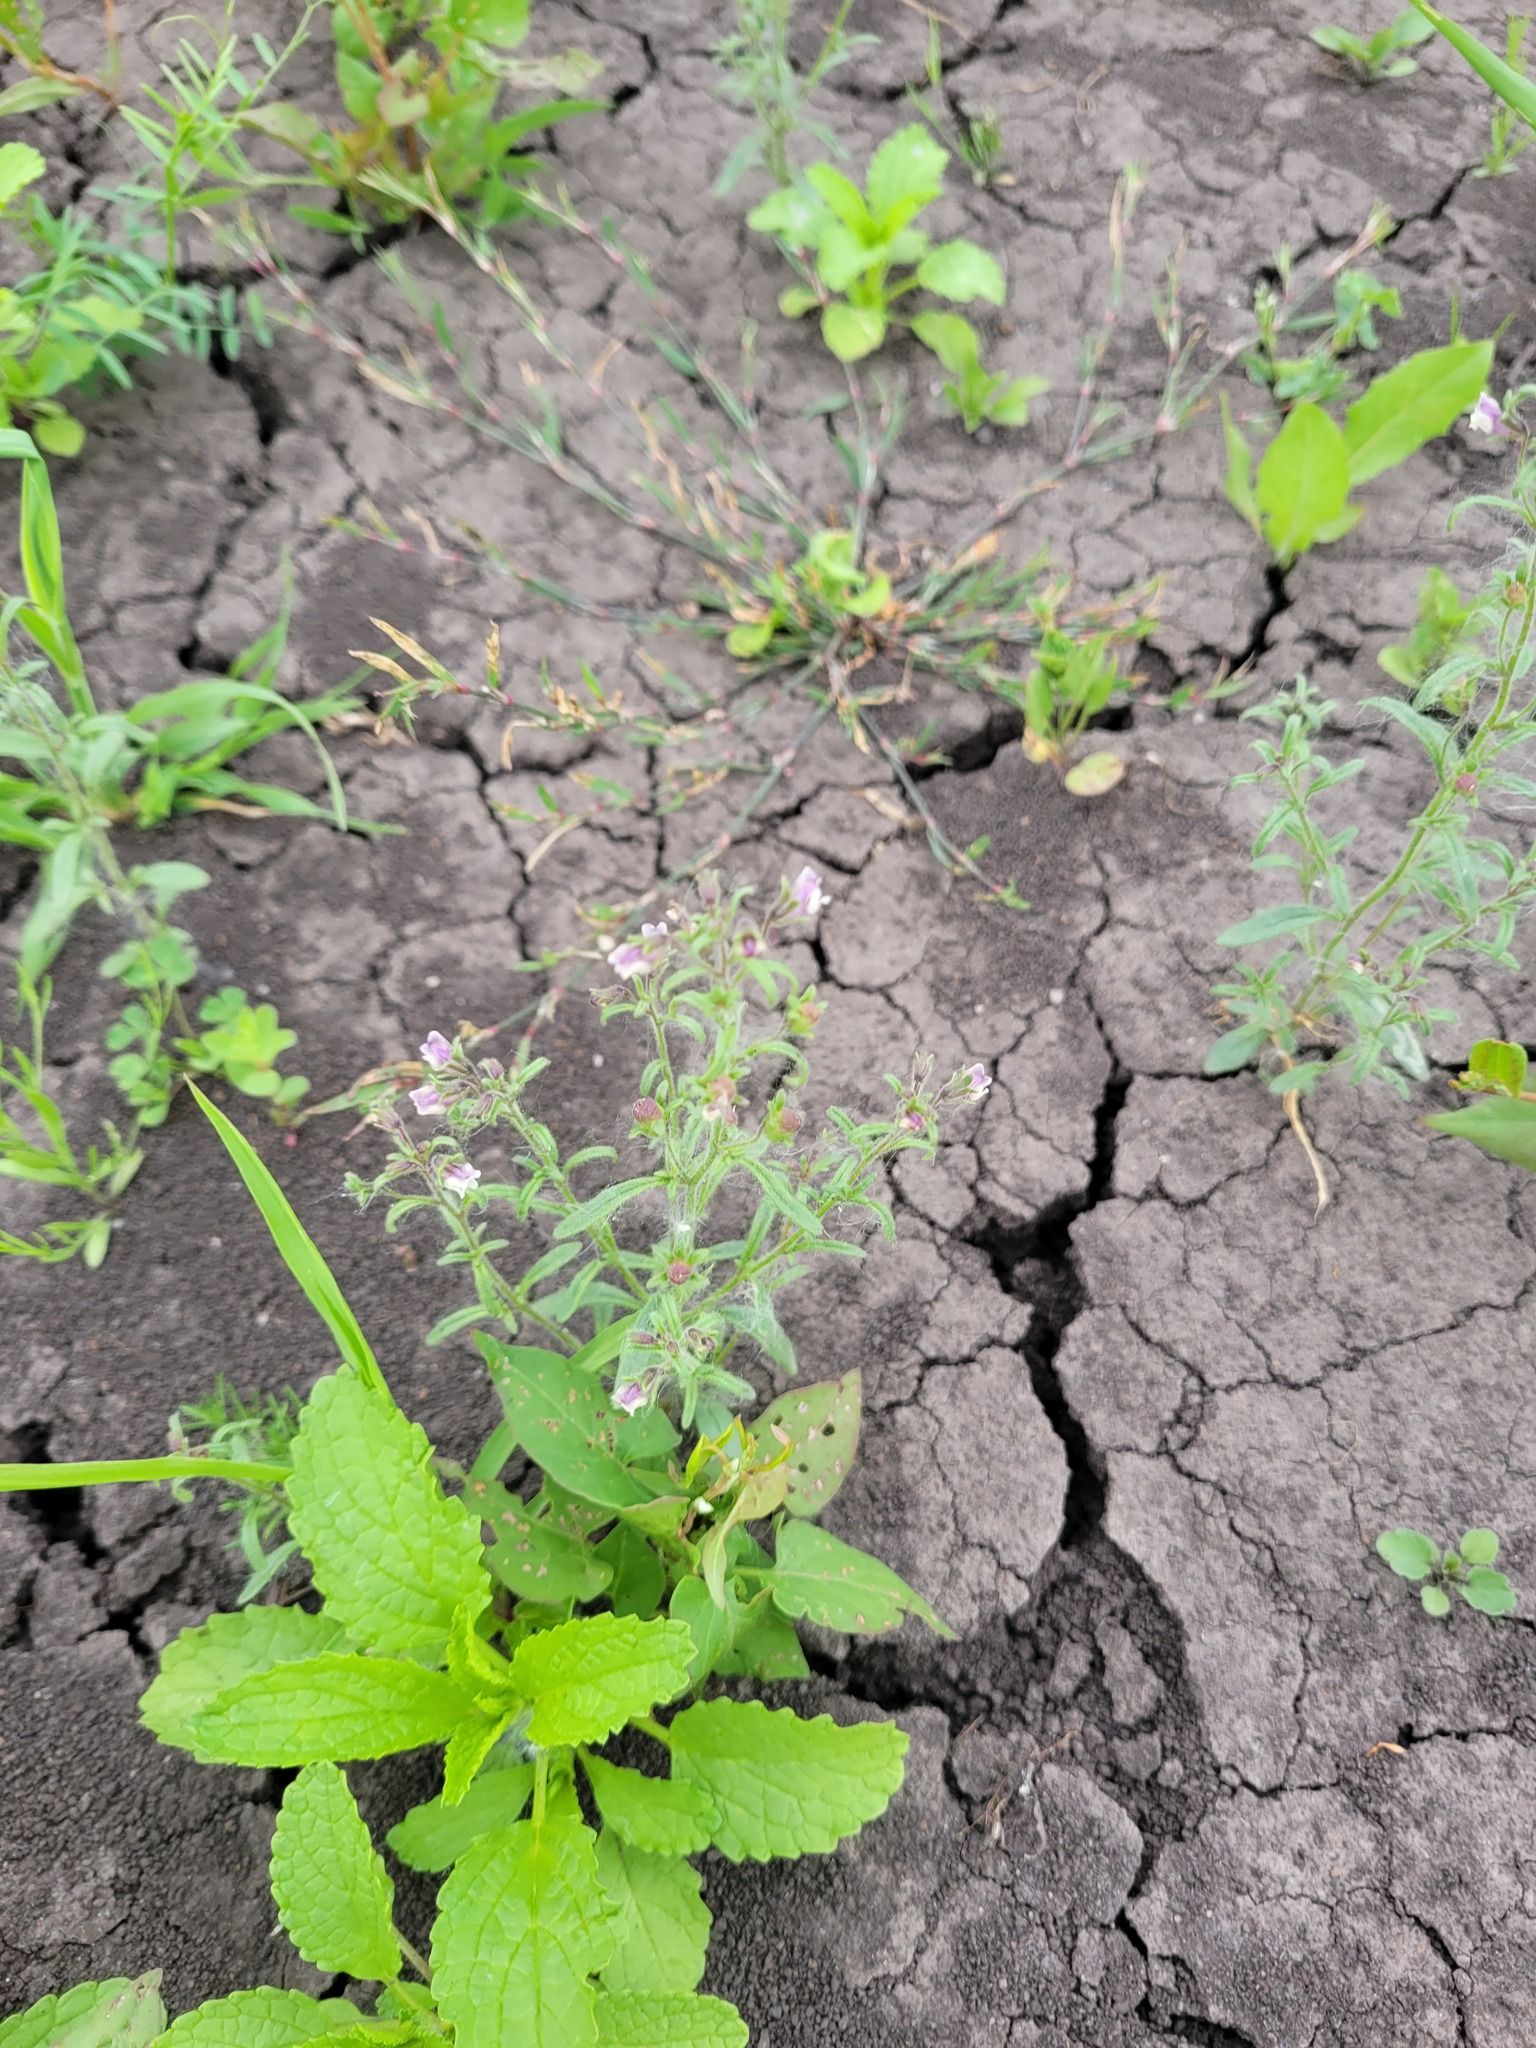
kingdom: Plantae
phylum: Tracheophyta
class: Magnoliopsida
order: Lamiales
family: Plantaginaceae
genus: Chaenorhinum
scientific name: Chaenorhinum minus
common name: Dwarf snapdragon
